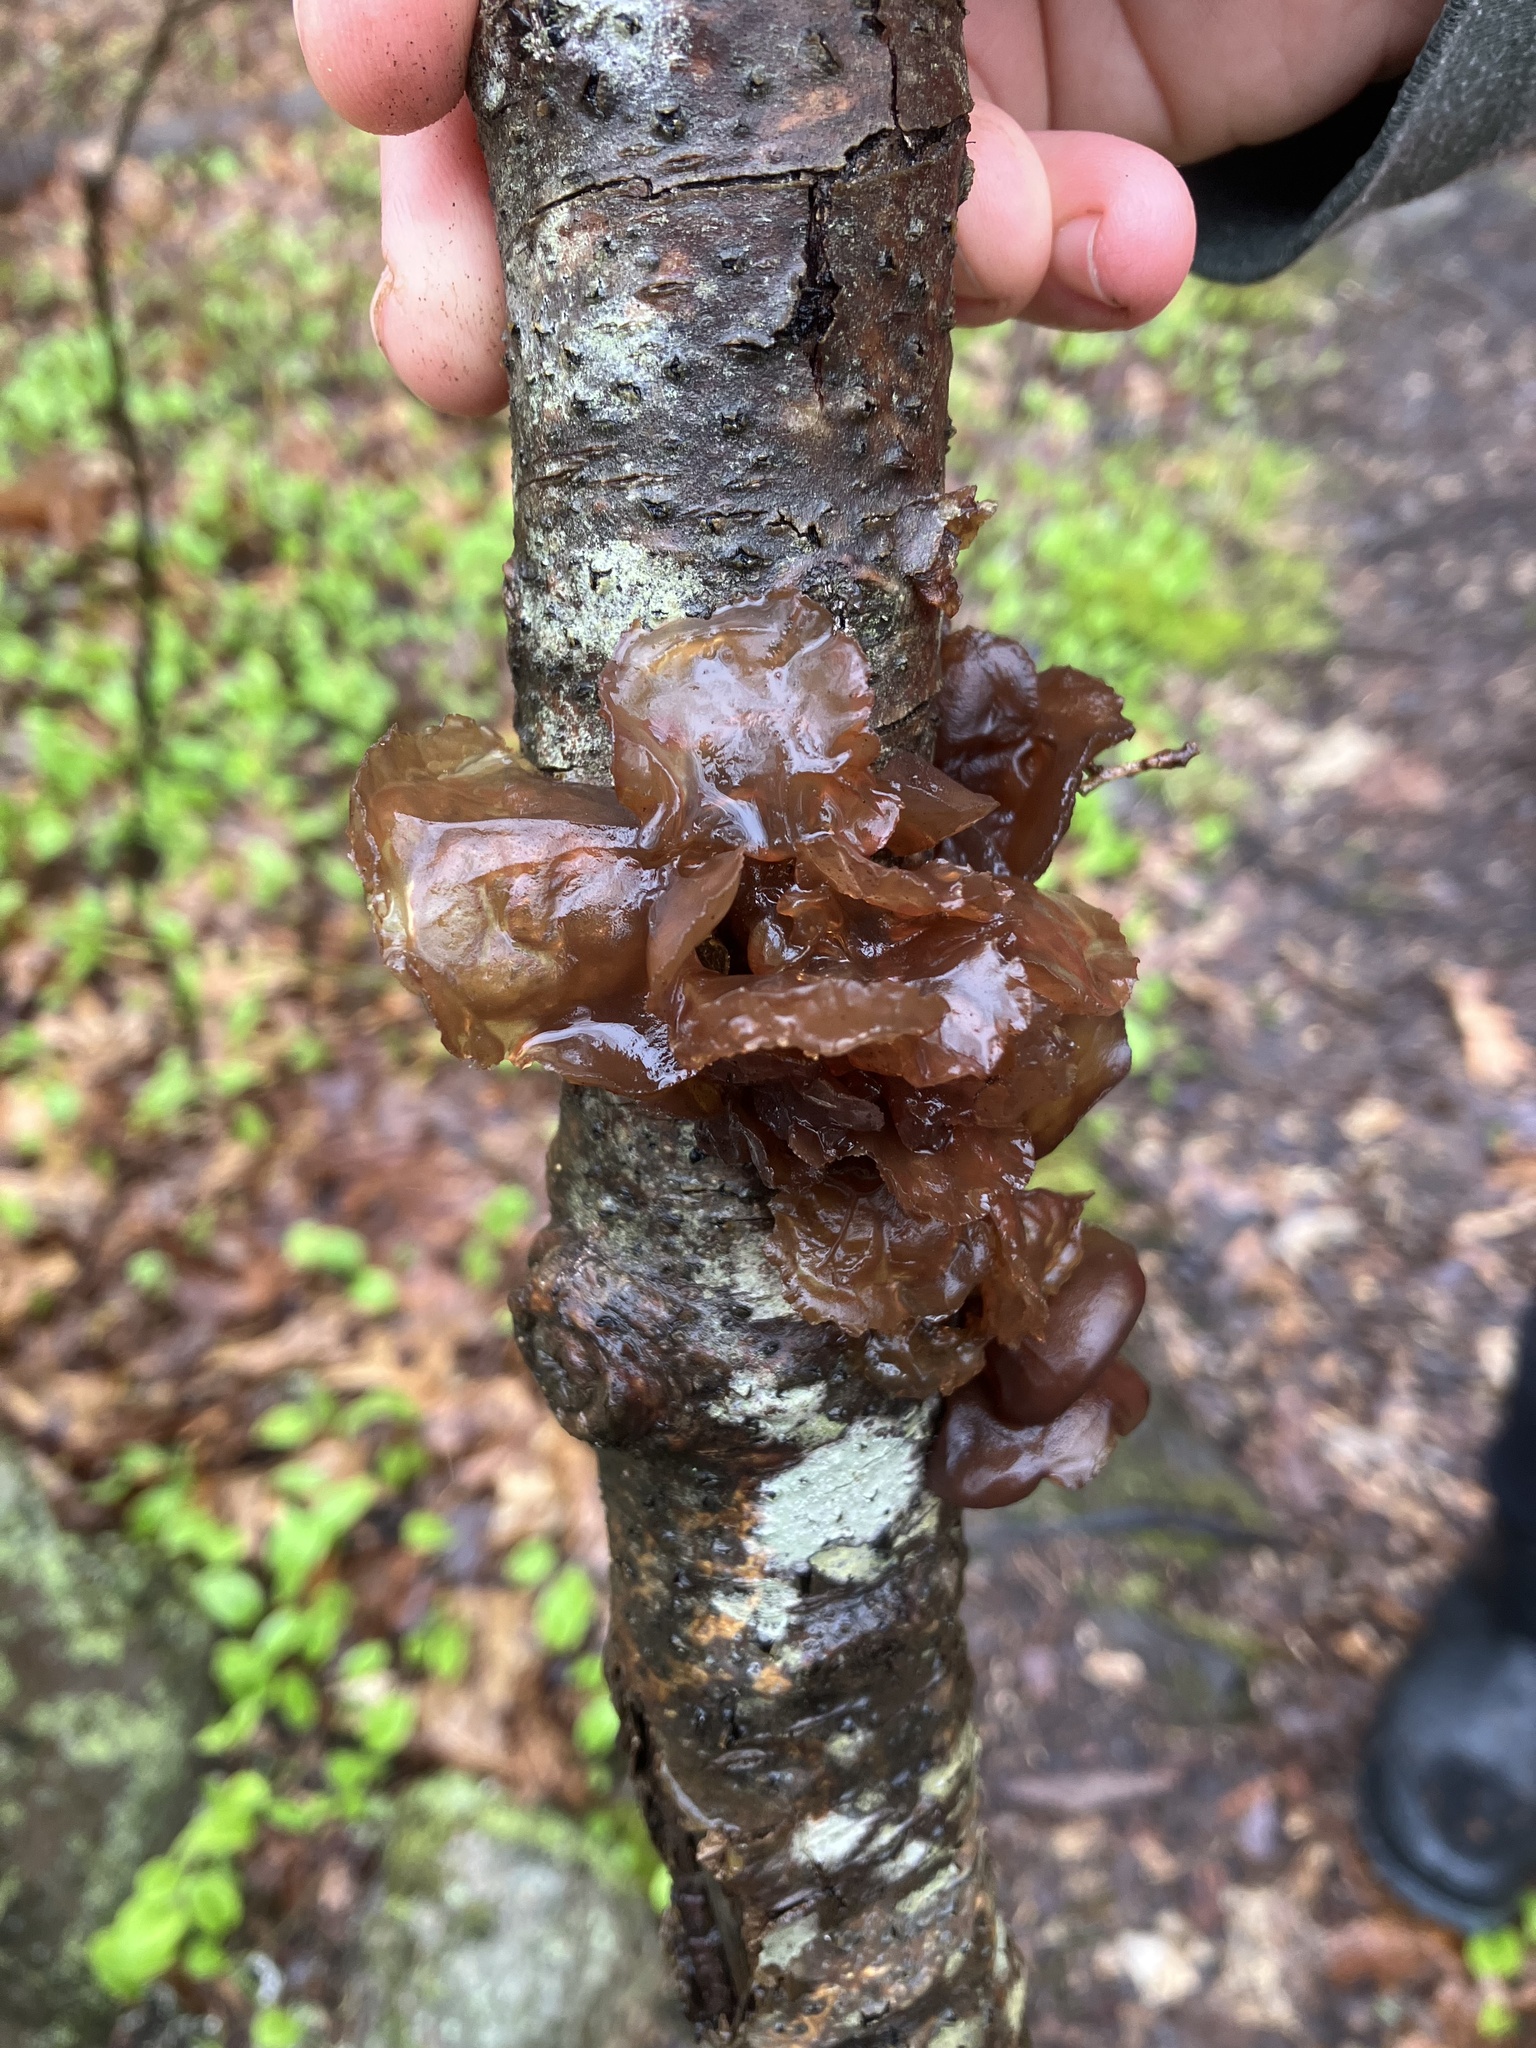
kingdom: Fungi
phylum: Basidiomycota
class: Agaricomycetes
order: Auriculariales
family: Auriculariaceae
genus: Exidia
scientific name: Exidia
